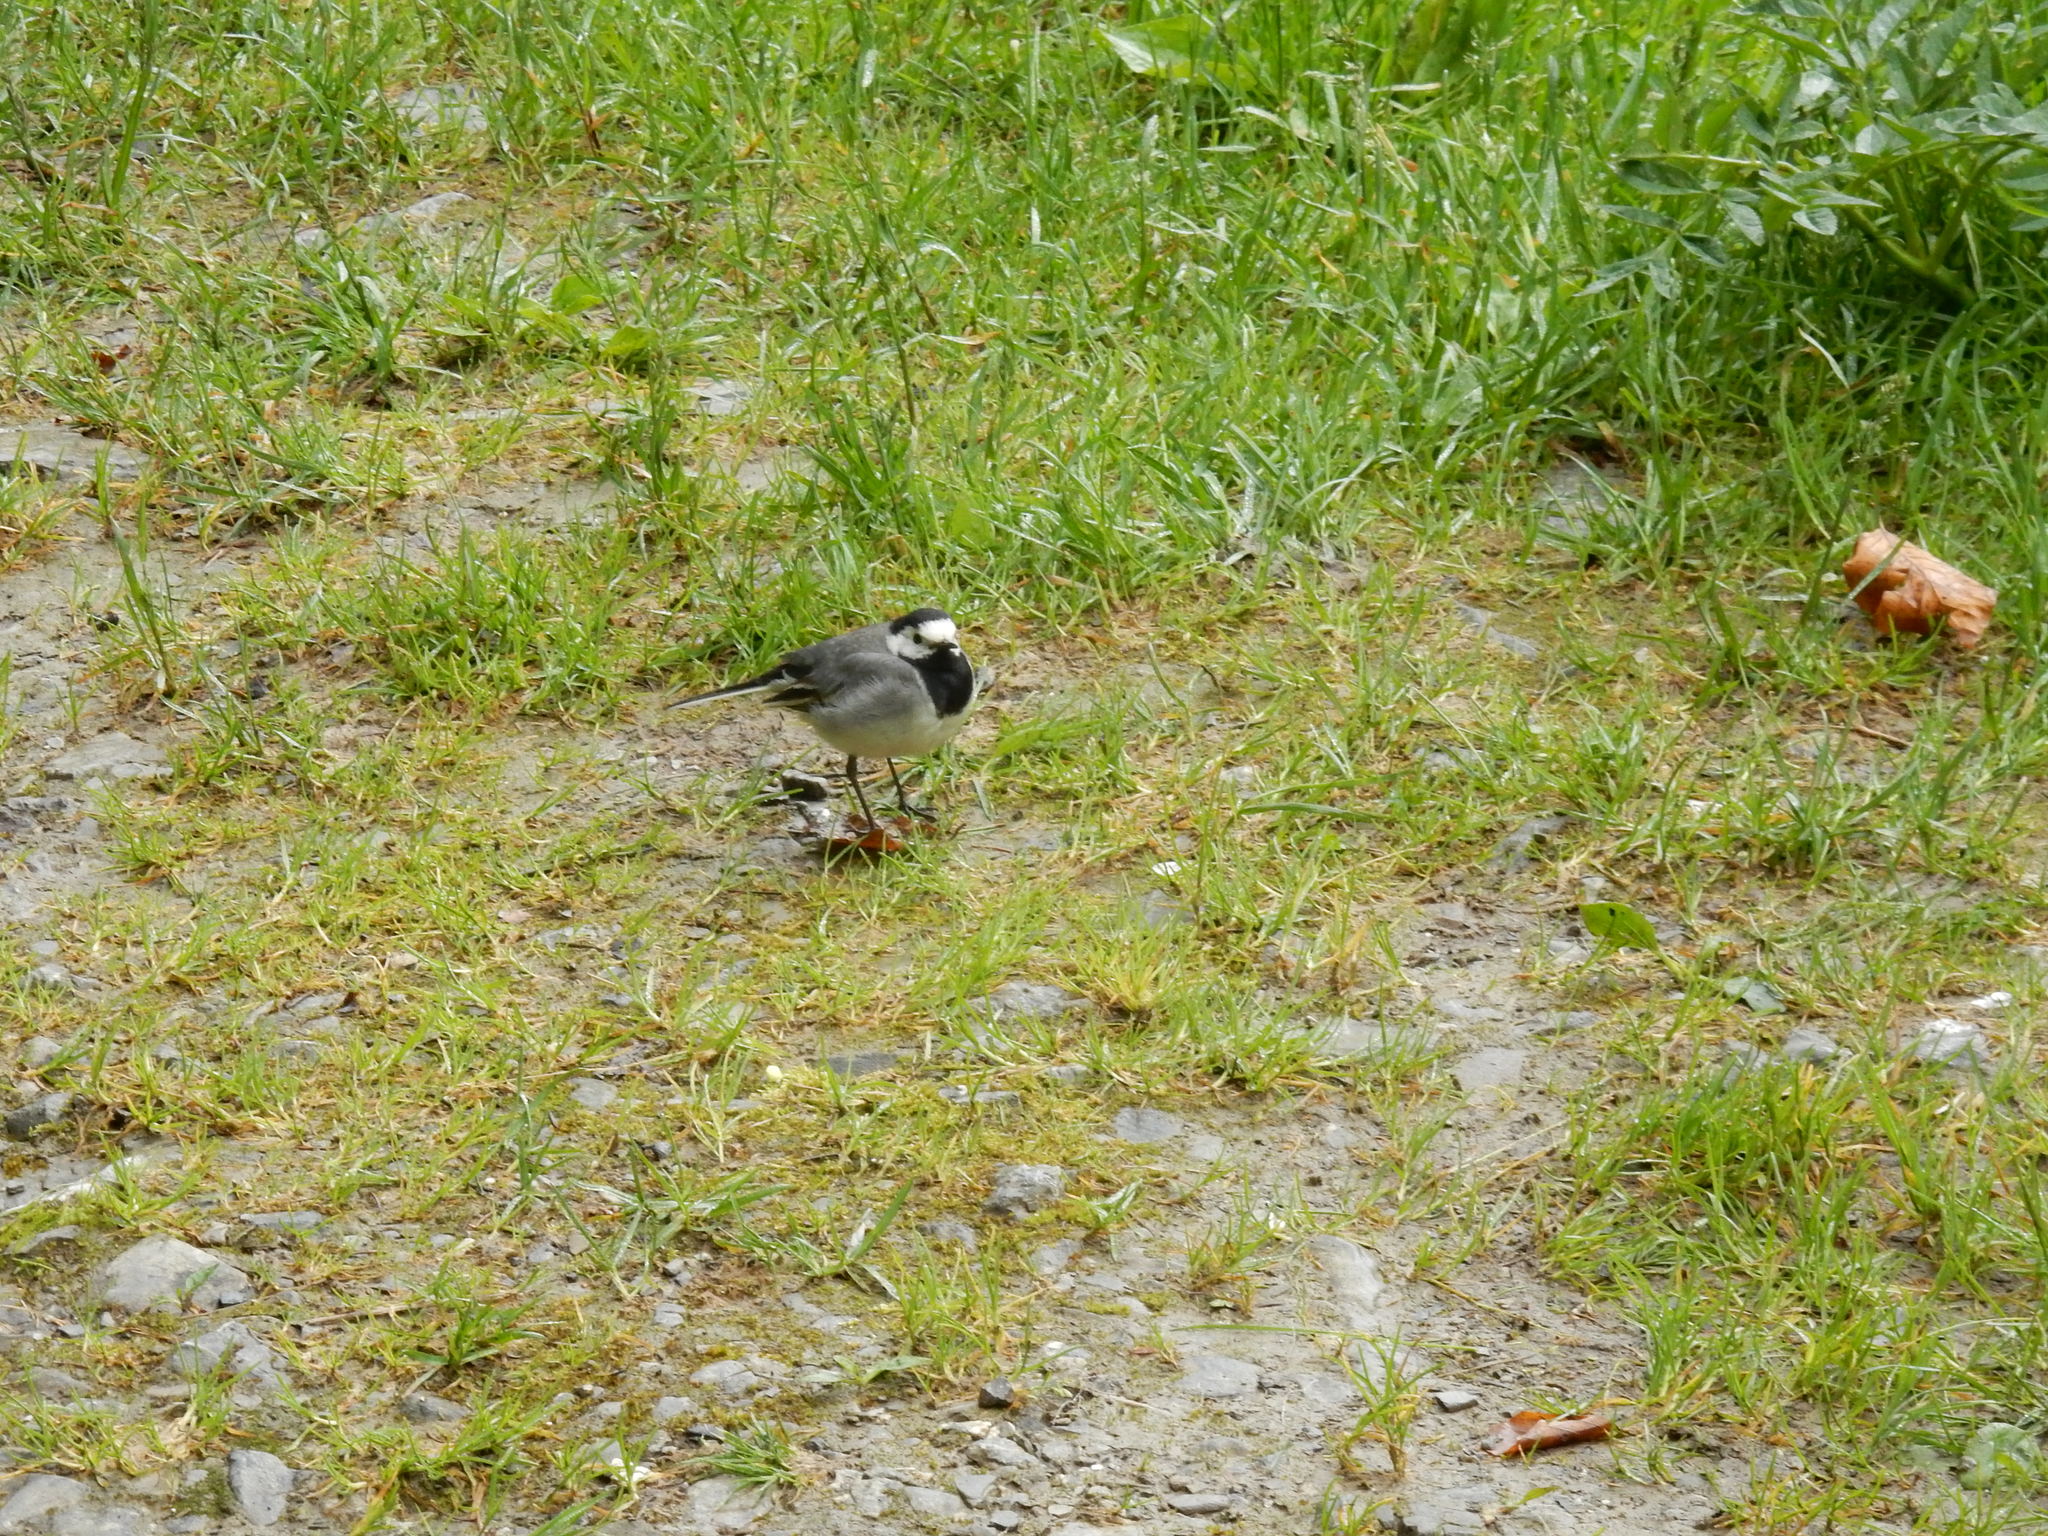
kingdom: Animalia
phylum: Chordata
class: Aves
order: Passeriformes
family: Motacillidae
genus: Motacilla
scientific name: Motacilla alba
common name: White wagtail
